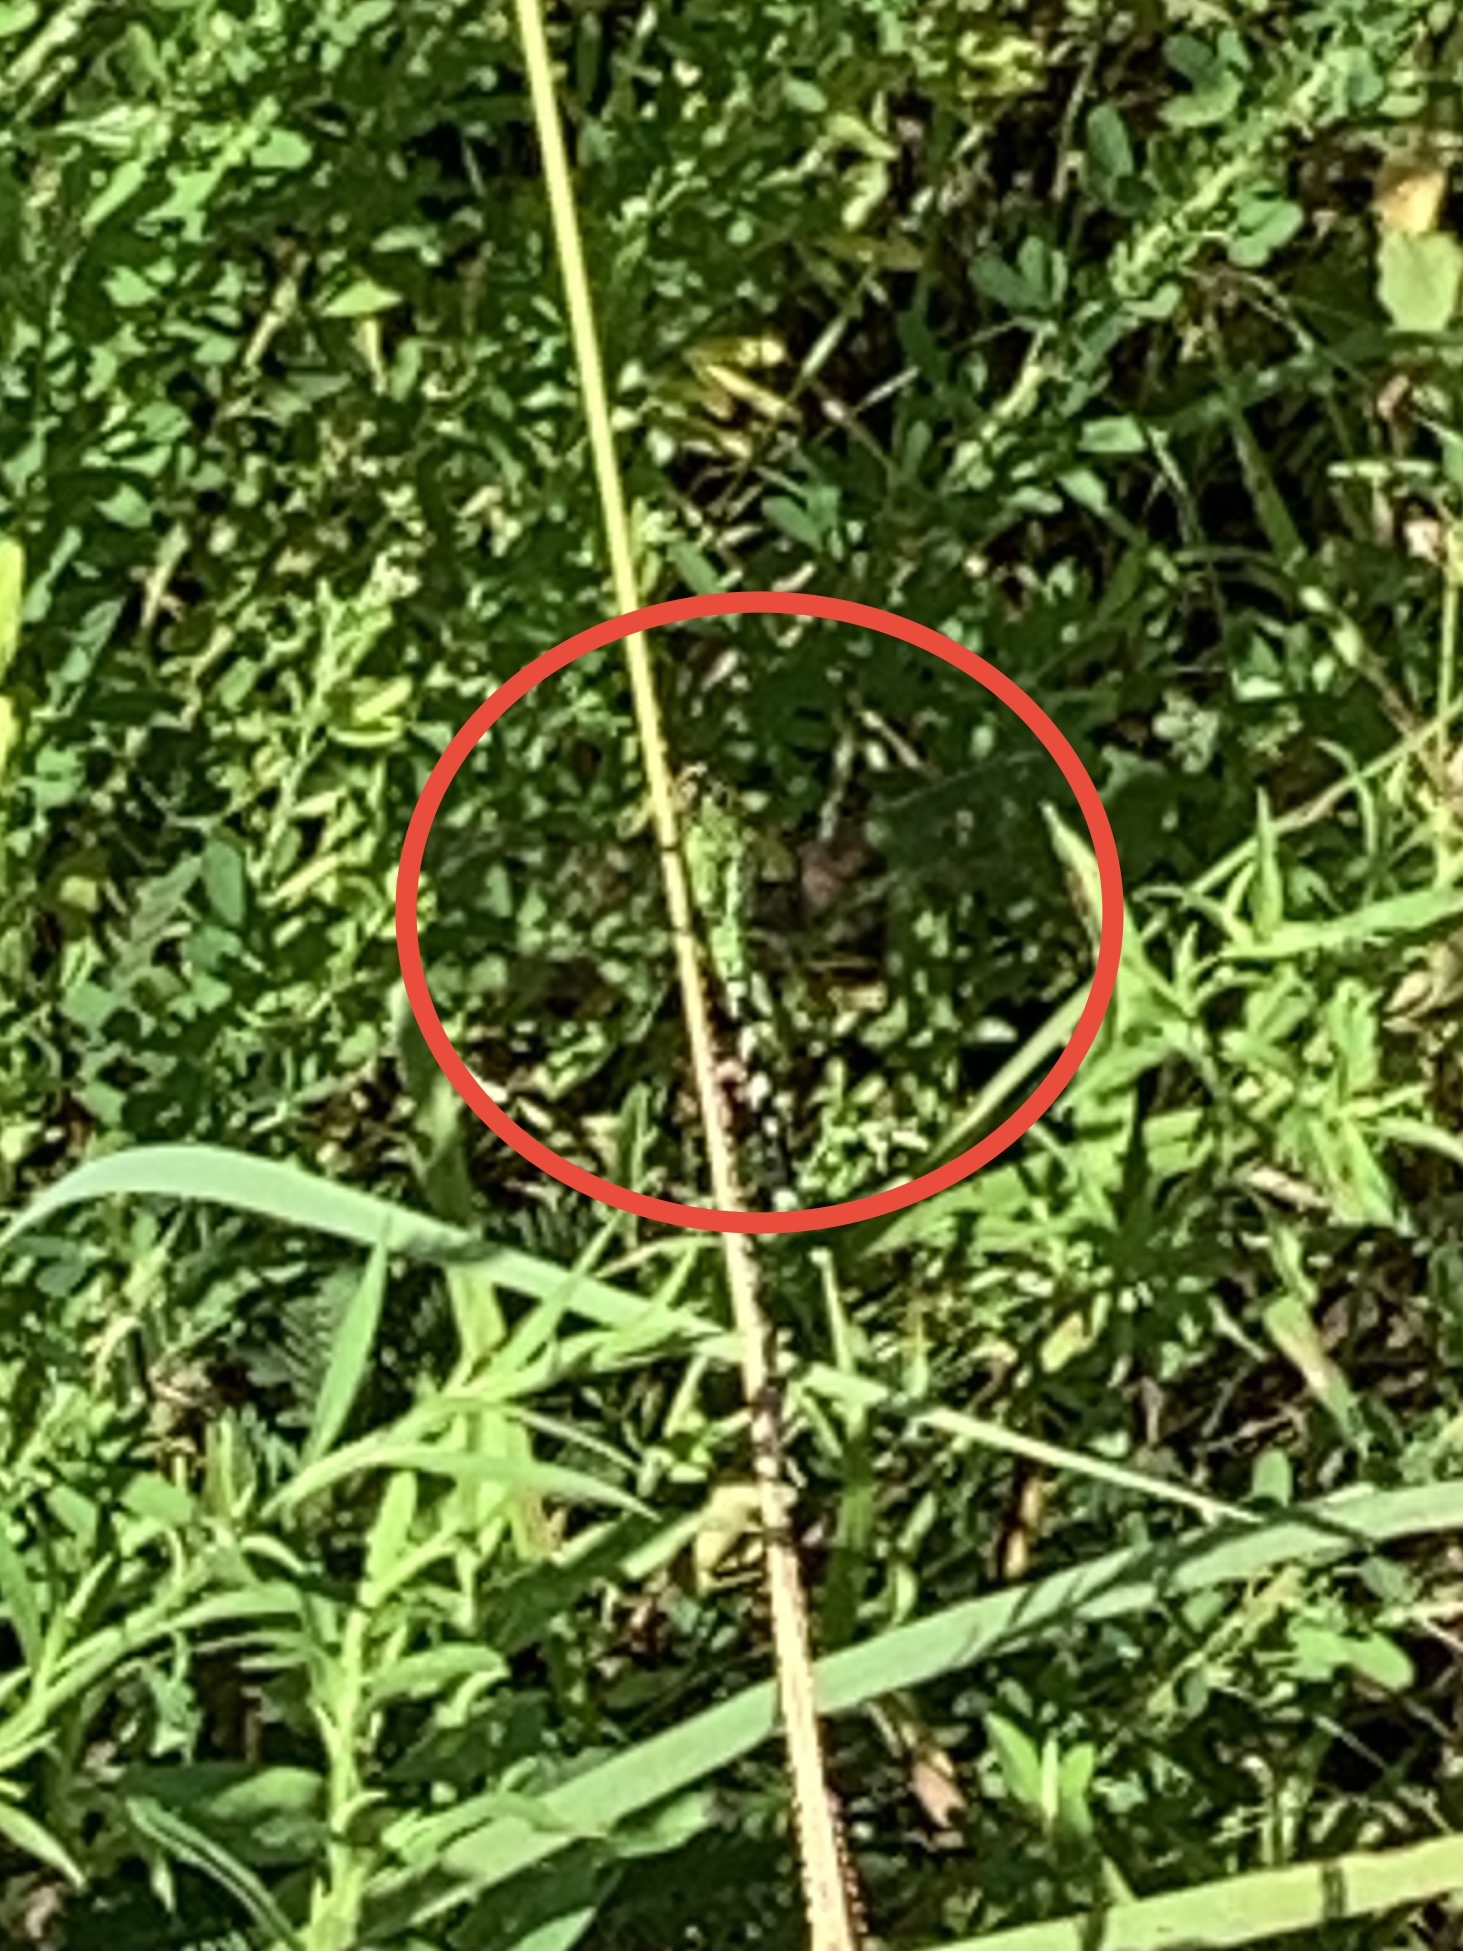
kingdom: Animalia
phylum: Arthropoda
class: Insecta
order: Odonata
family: Libellulidae
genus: Erythemis
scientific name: Erythemis simplicicollis
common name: Eastern pondhawk
